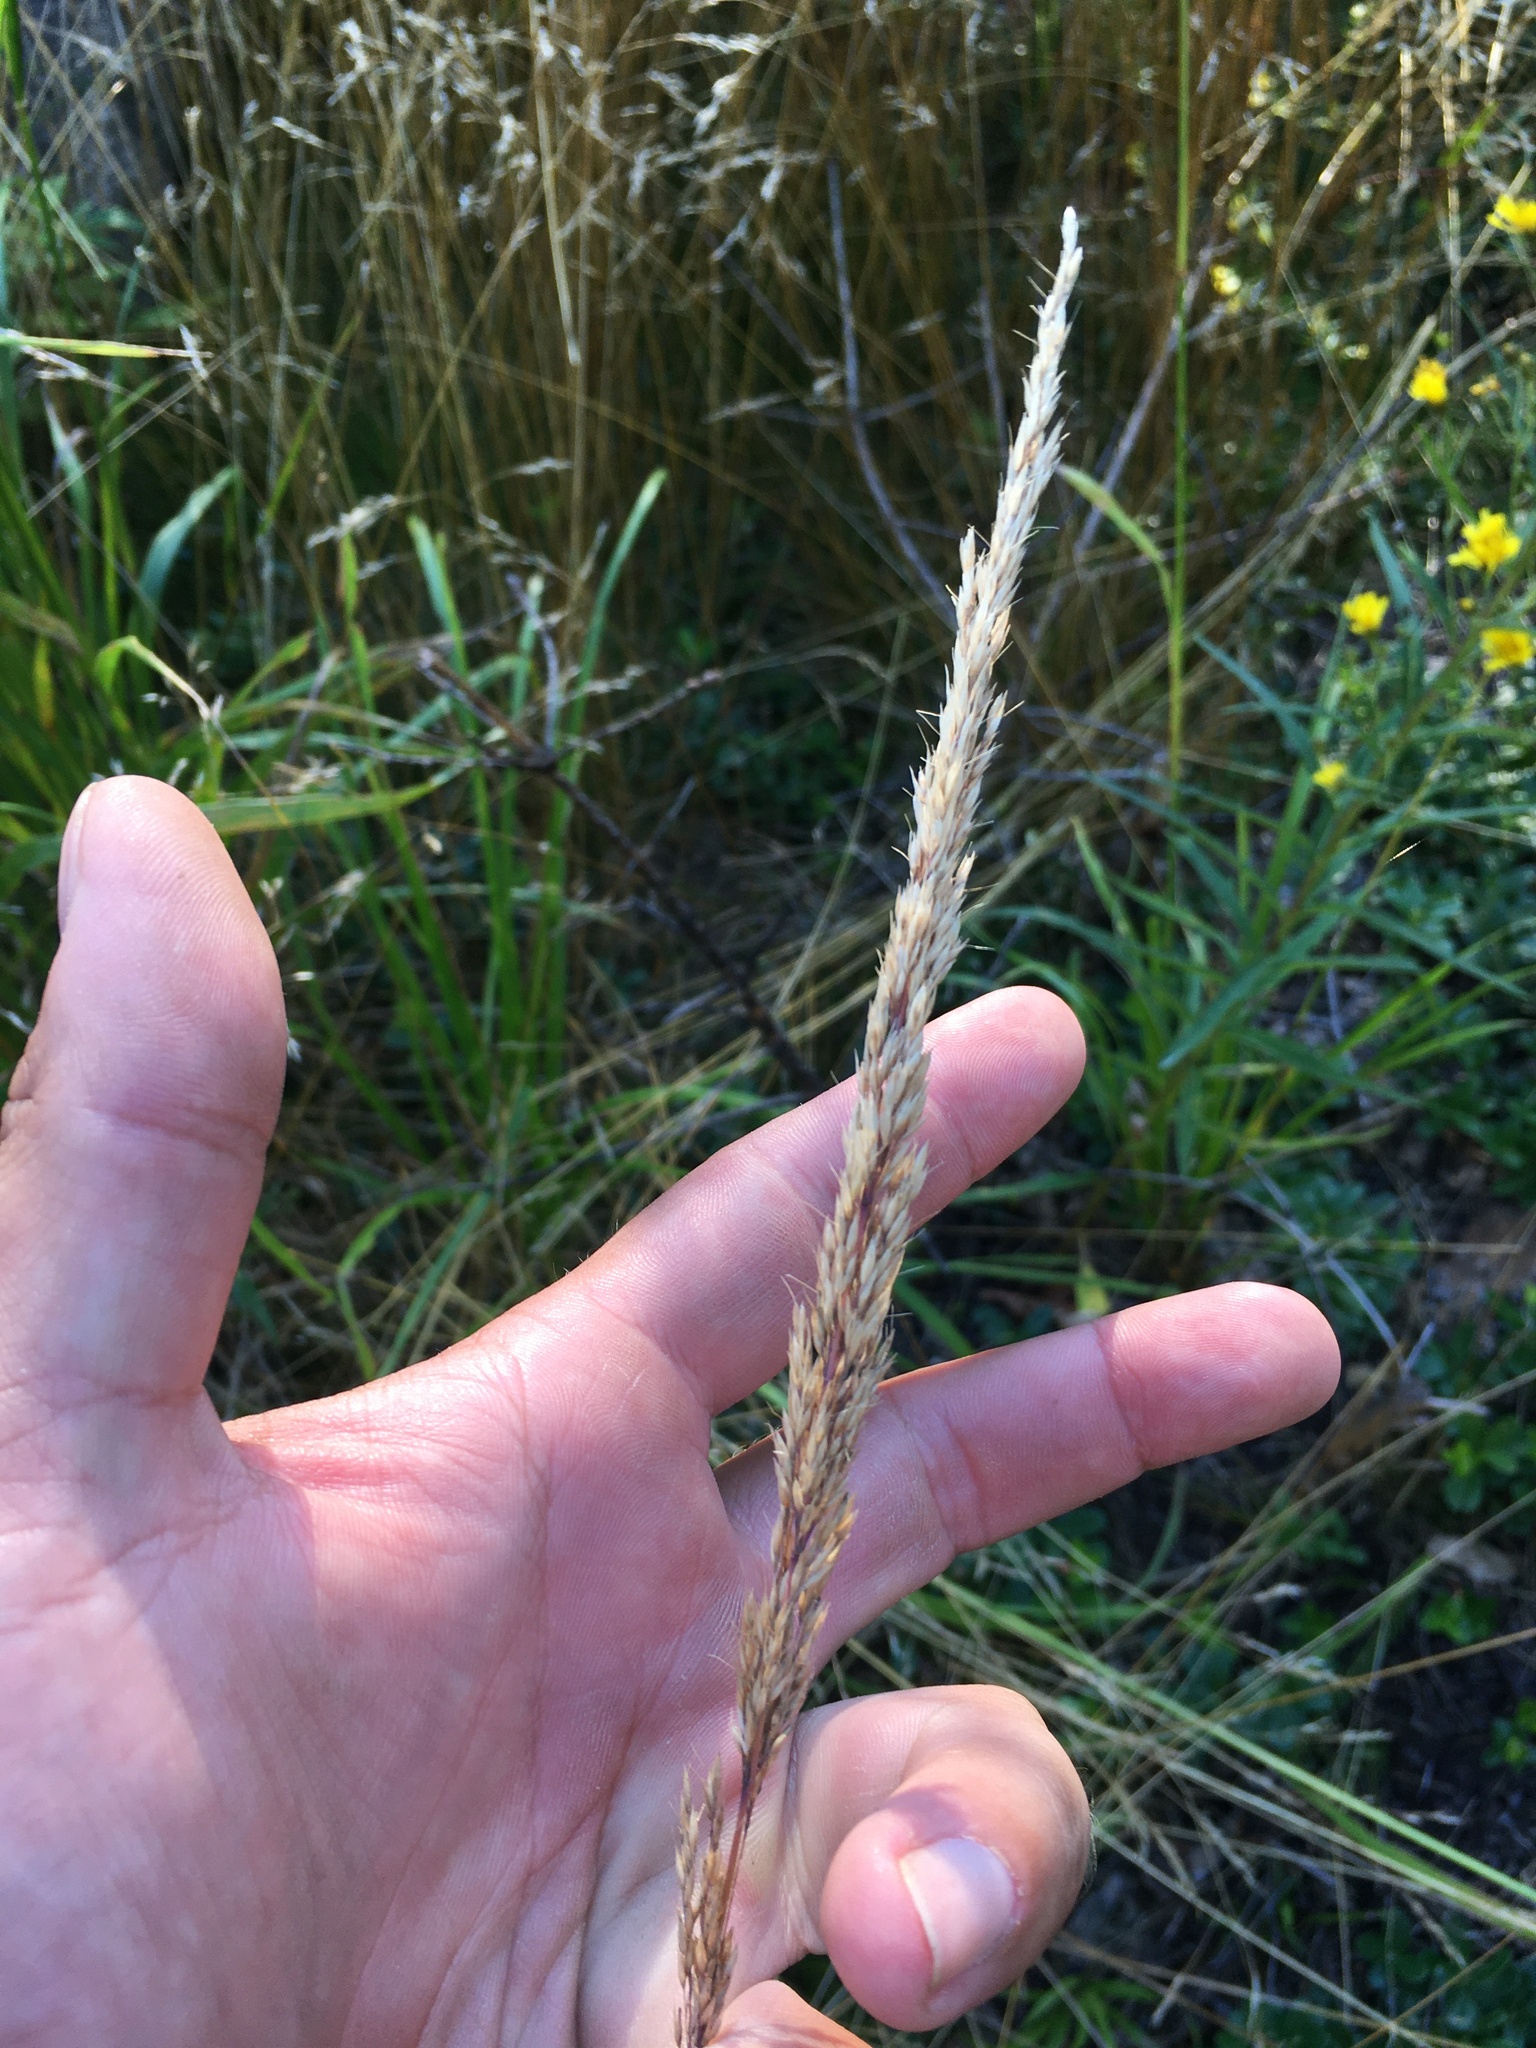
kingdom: Plantae
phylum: Tracheophyta
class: Liliopsida
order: Poales
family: Poaceae
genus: Calamagrostis
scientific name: Calamagrostis arundinacea
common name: Metskastik
